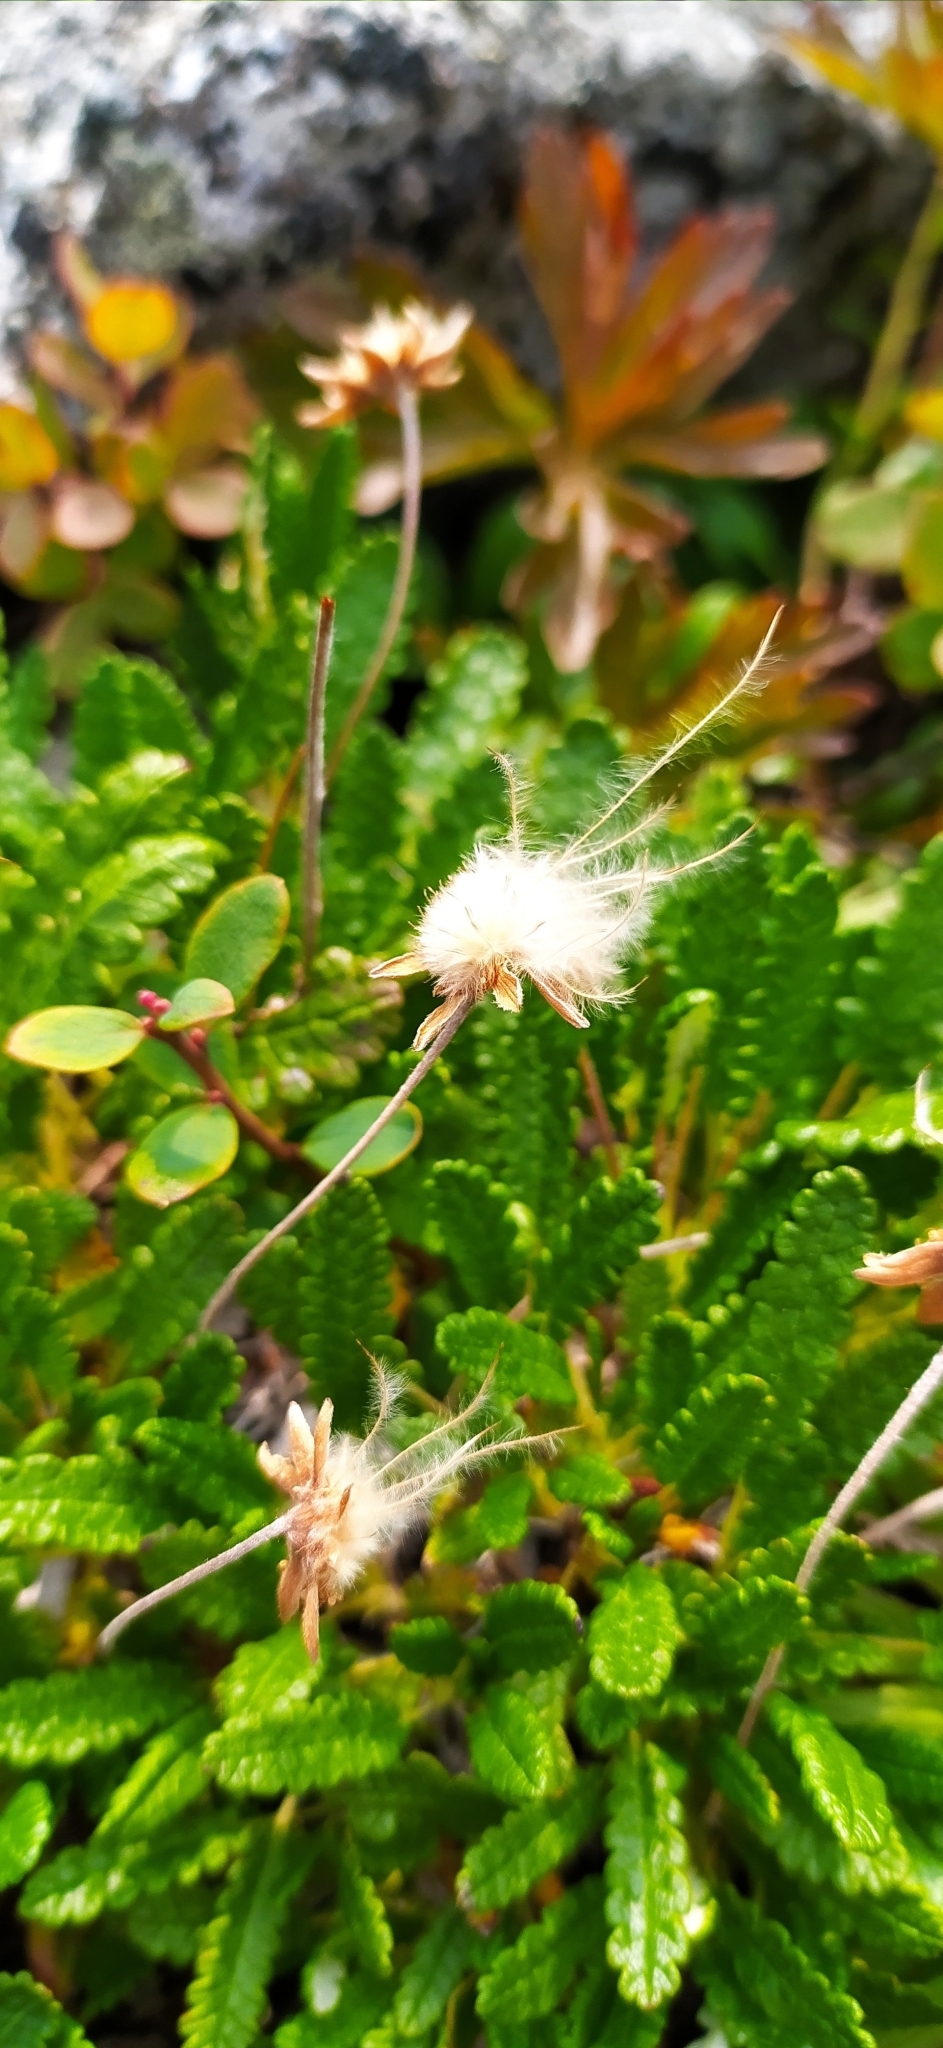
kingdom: Plantae
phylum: Tracheophyta
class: Magnoliopsida
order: Rosales
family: Rosaceae
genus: Dryas
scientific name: Dryas octopetala
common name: Eight-petal mountain-avens
